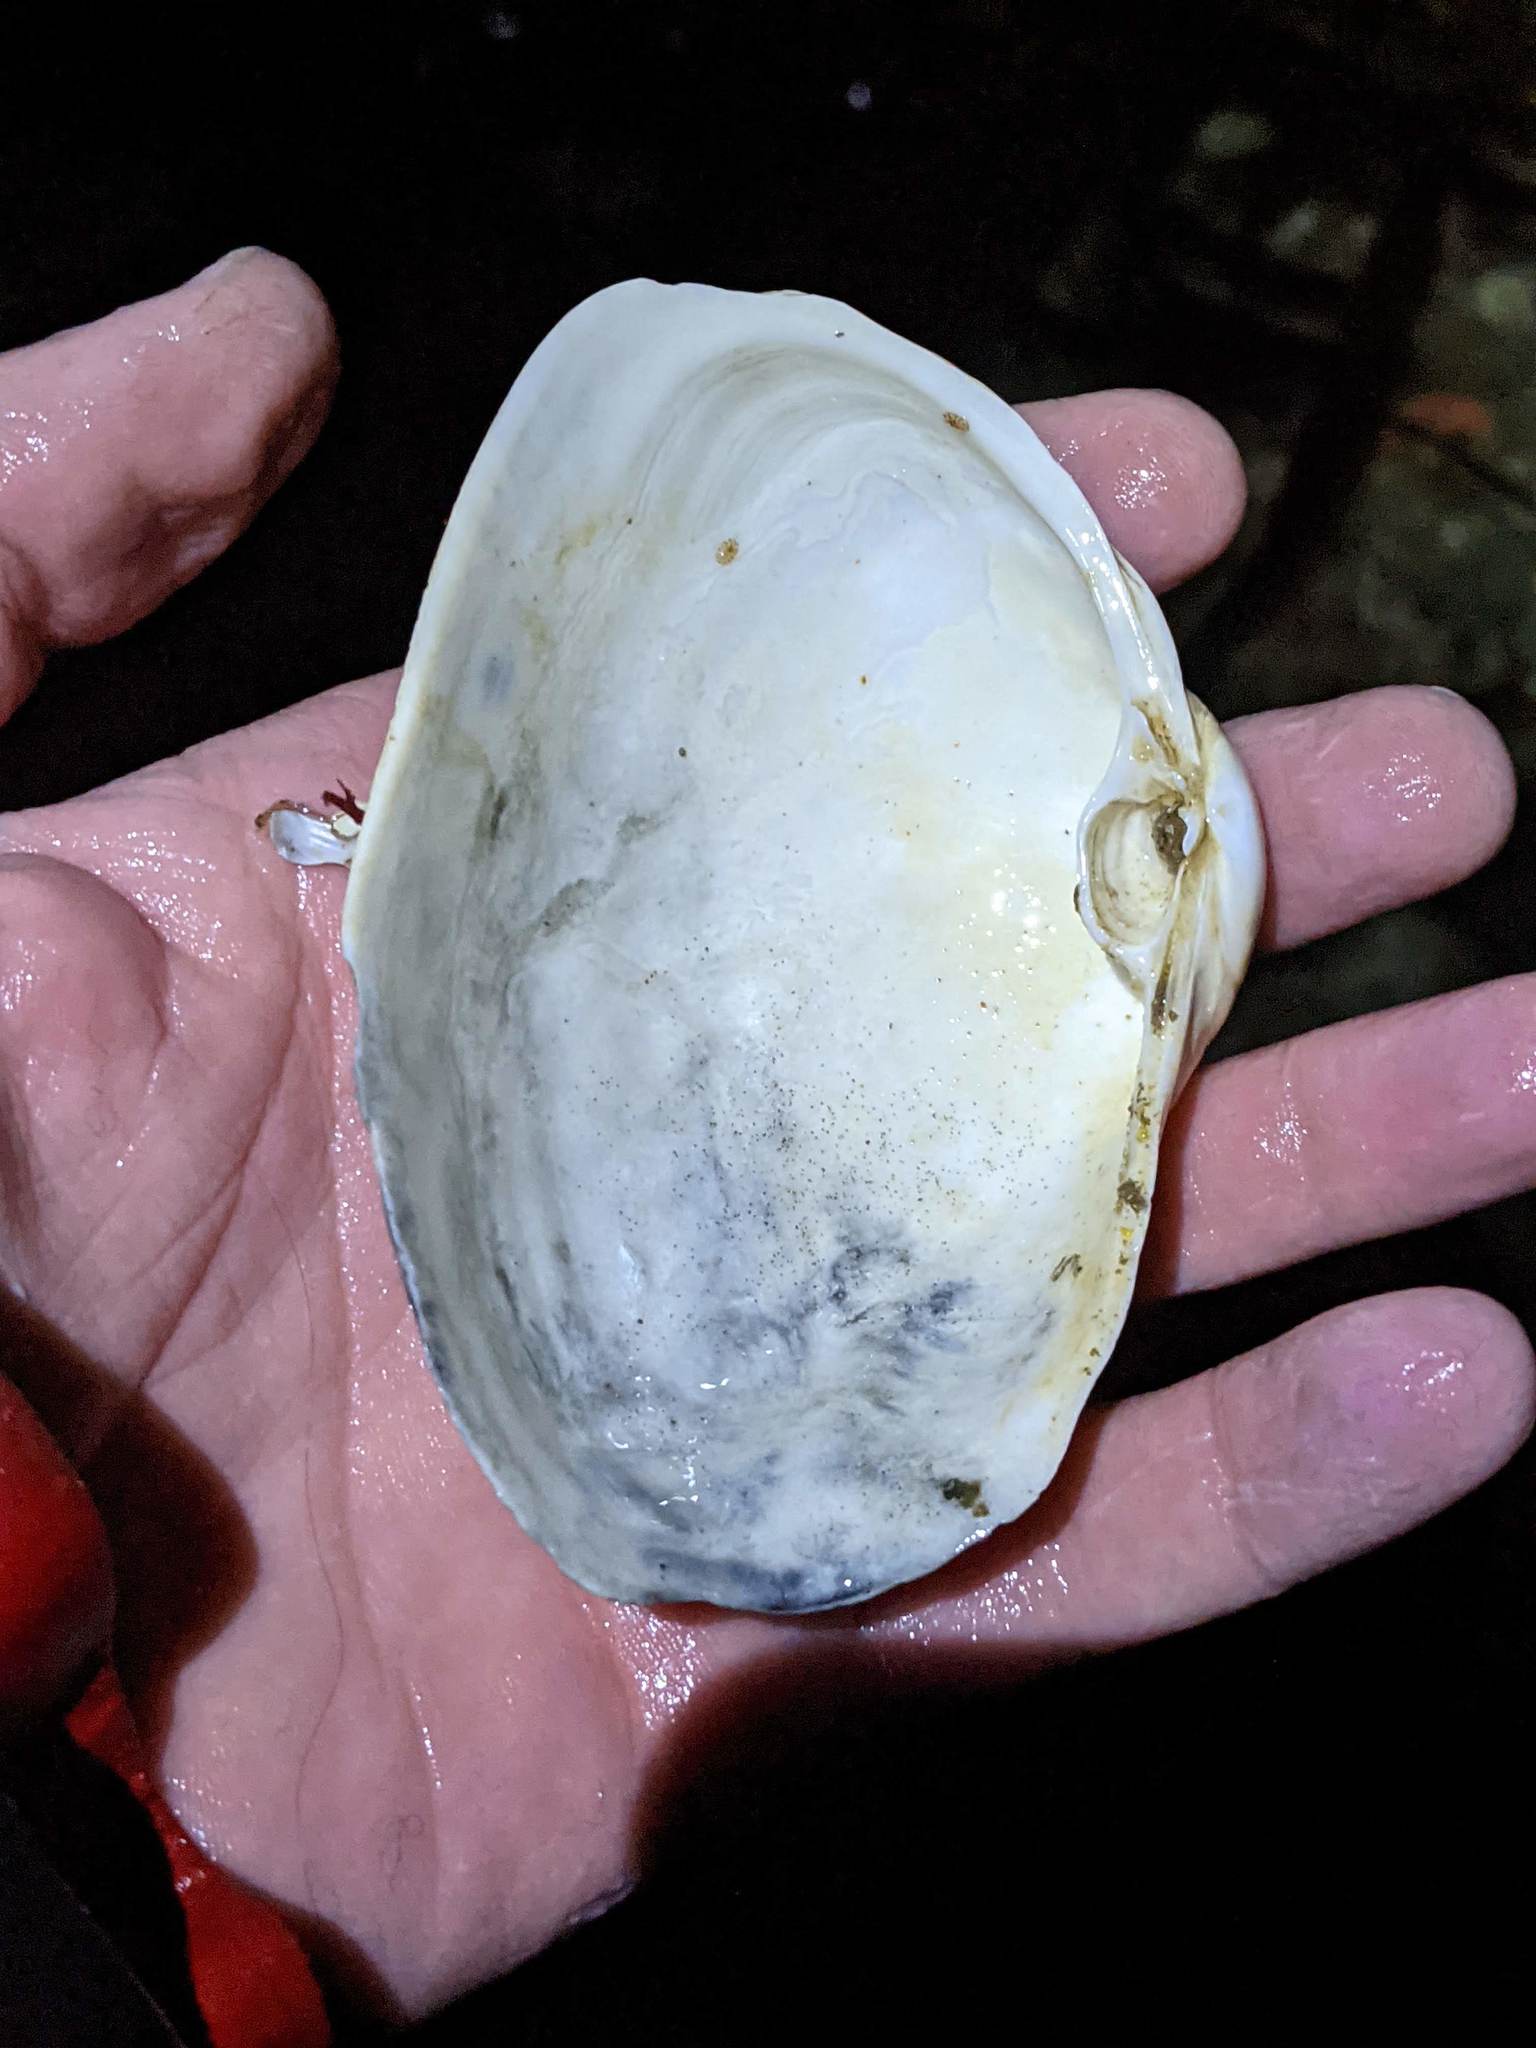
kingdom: Animalia
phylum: Mollusca
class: Bivalvia
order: Venerida
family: Mactridae
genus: Tresus
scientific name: Tresus nuttallii
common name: Pacific gaper clam
